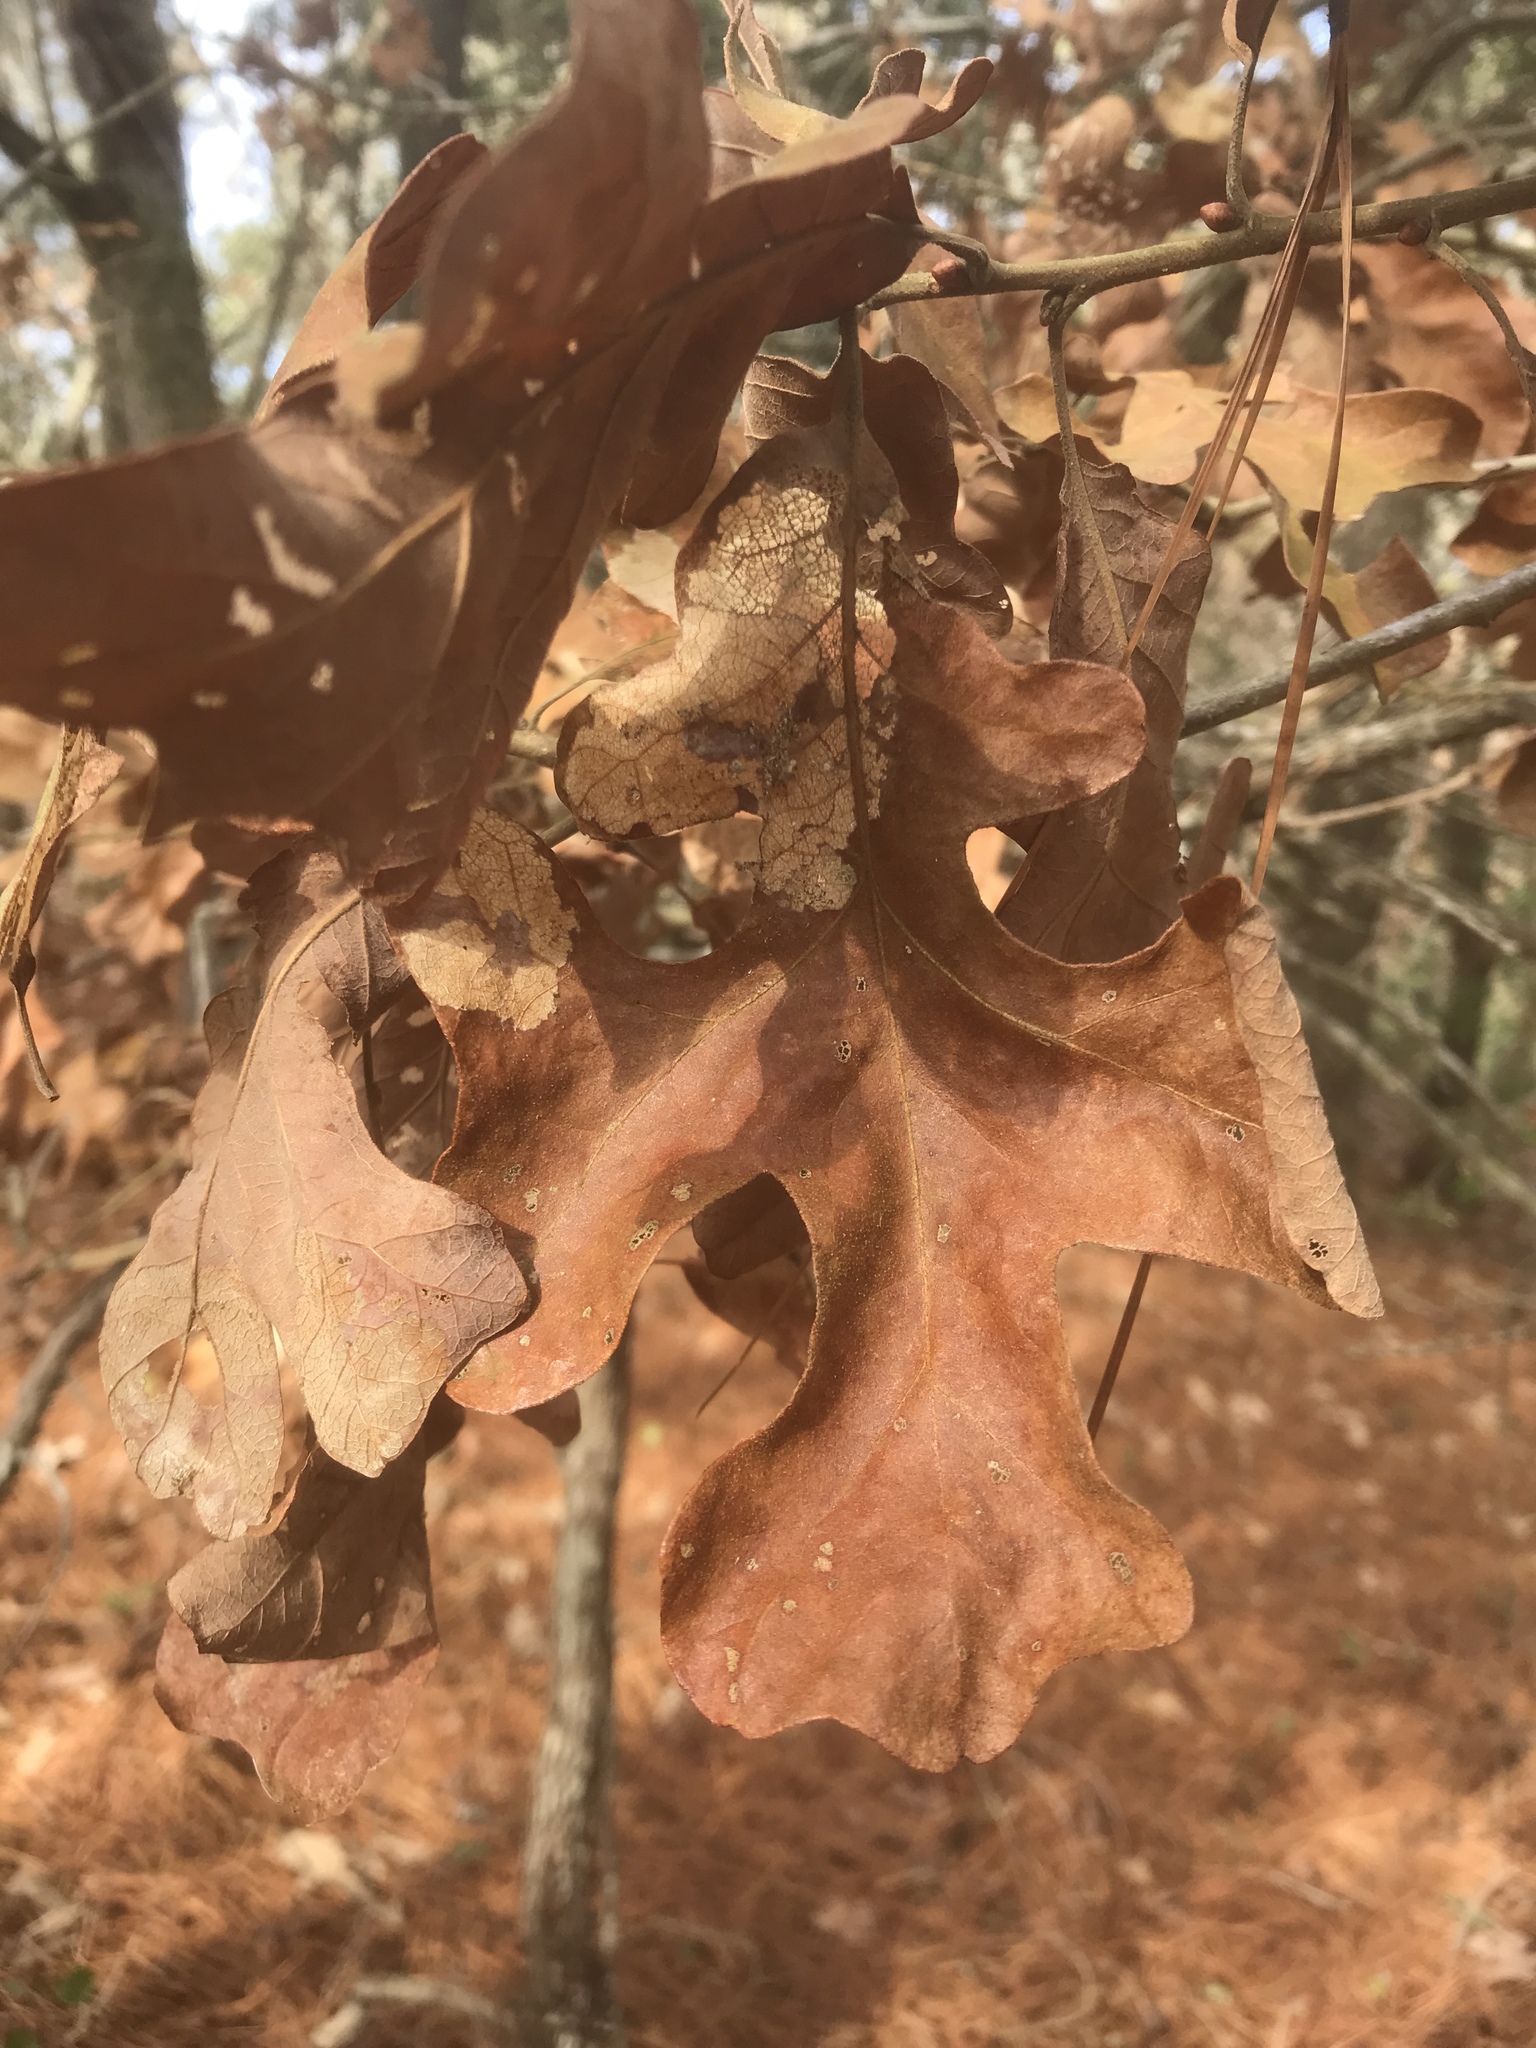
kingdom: Plantae
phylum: Tracheophyta
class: Magnoliopsida
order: Fagales
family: Fagaceae
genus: Quercus
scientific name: Quercus stellata
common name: Post oak
